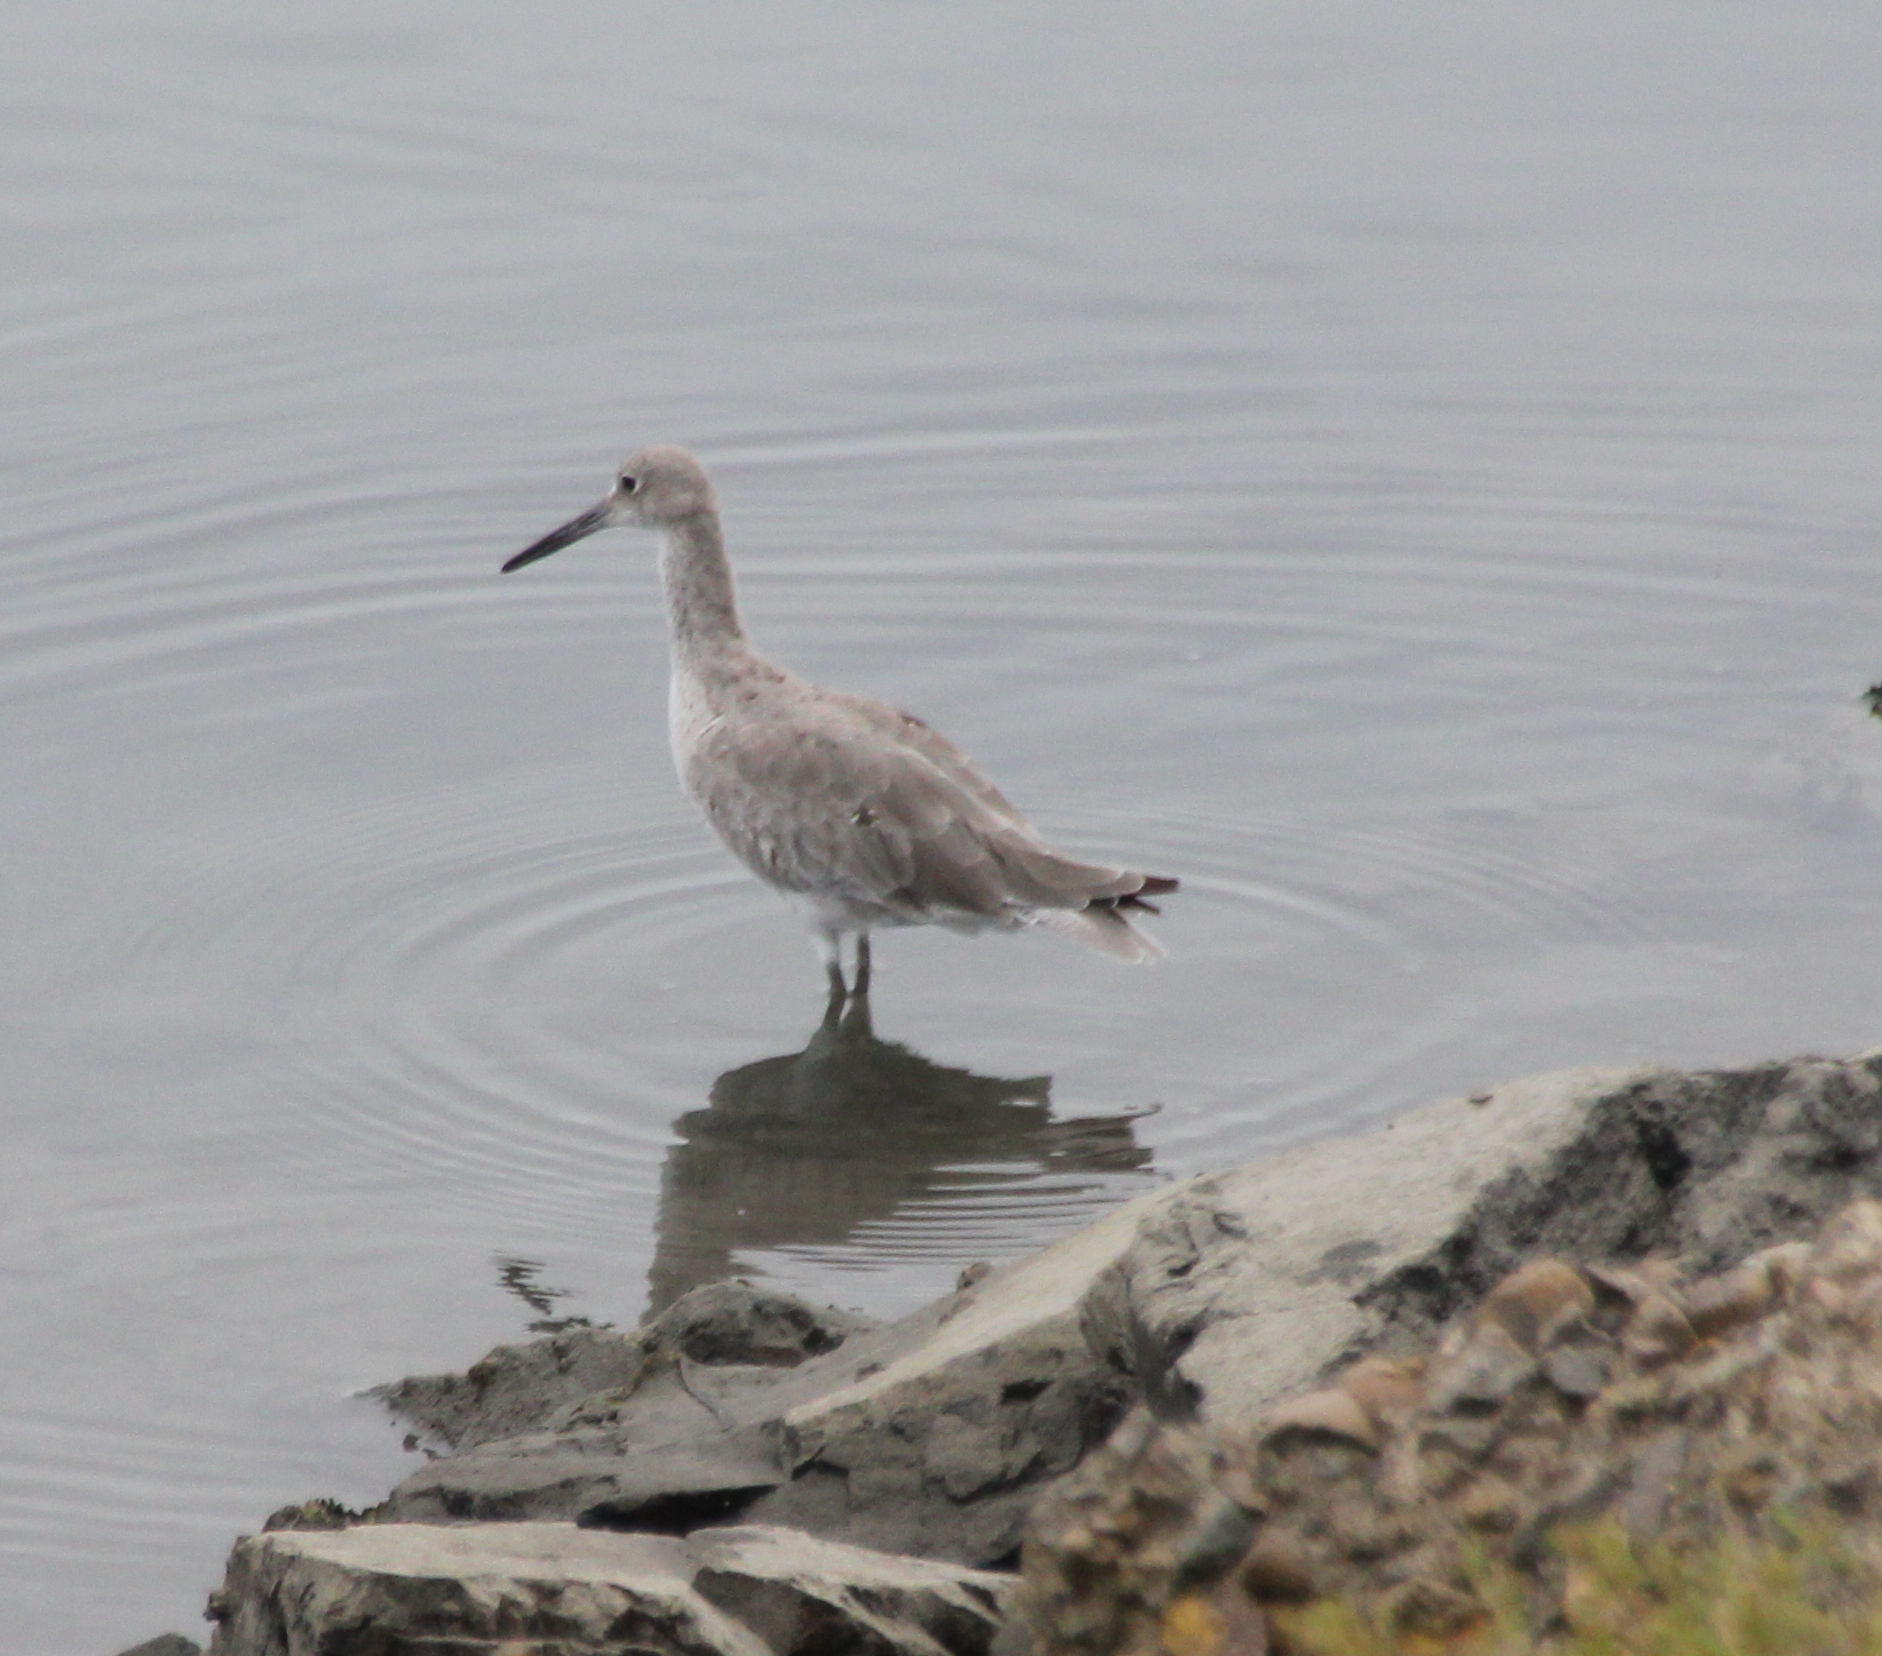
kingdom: Animalia
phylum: Chordata
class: Aves
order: Charadriiformes
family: Scolopacidae
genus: Tringa
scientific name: Tringa semipalmata
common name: Willet
